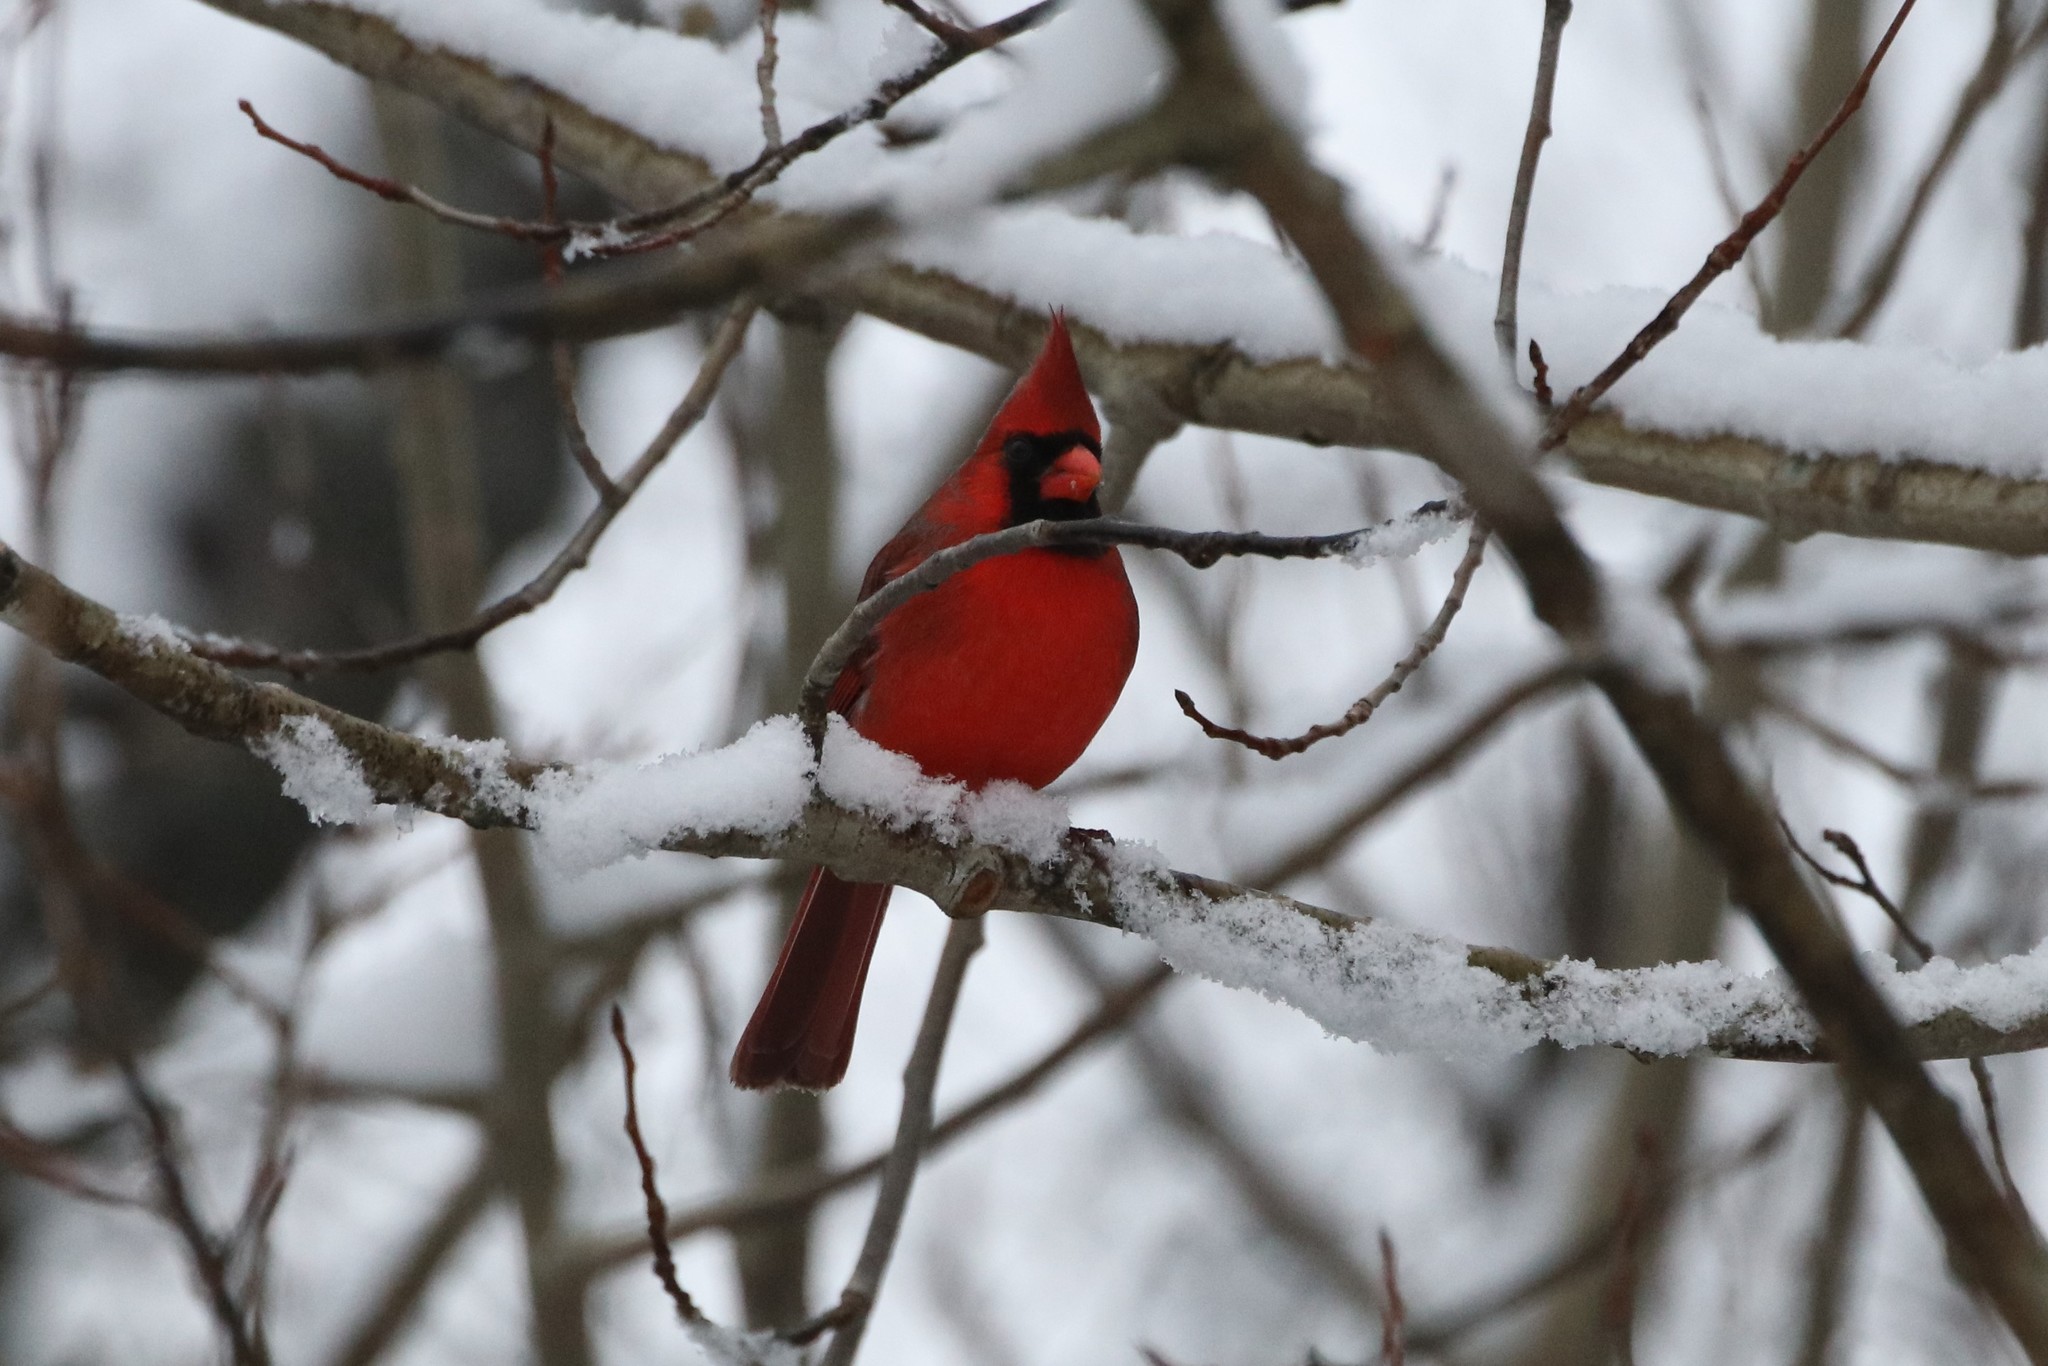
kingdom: Animalia
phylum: Chordata
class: Aves
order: Passeriformes
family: Cardinalidae
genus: Cardinalis
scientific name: Cardinalis cardinalis
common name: Northern cardinal
